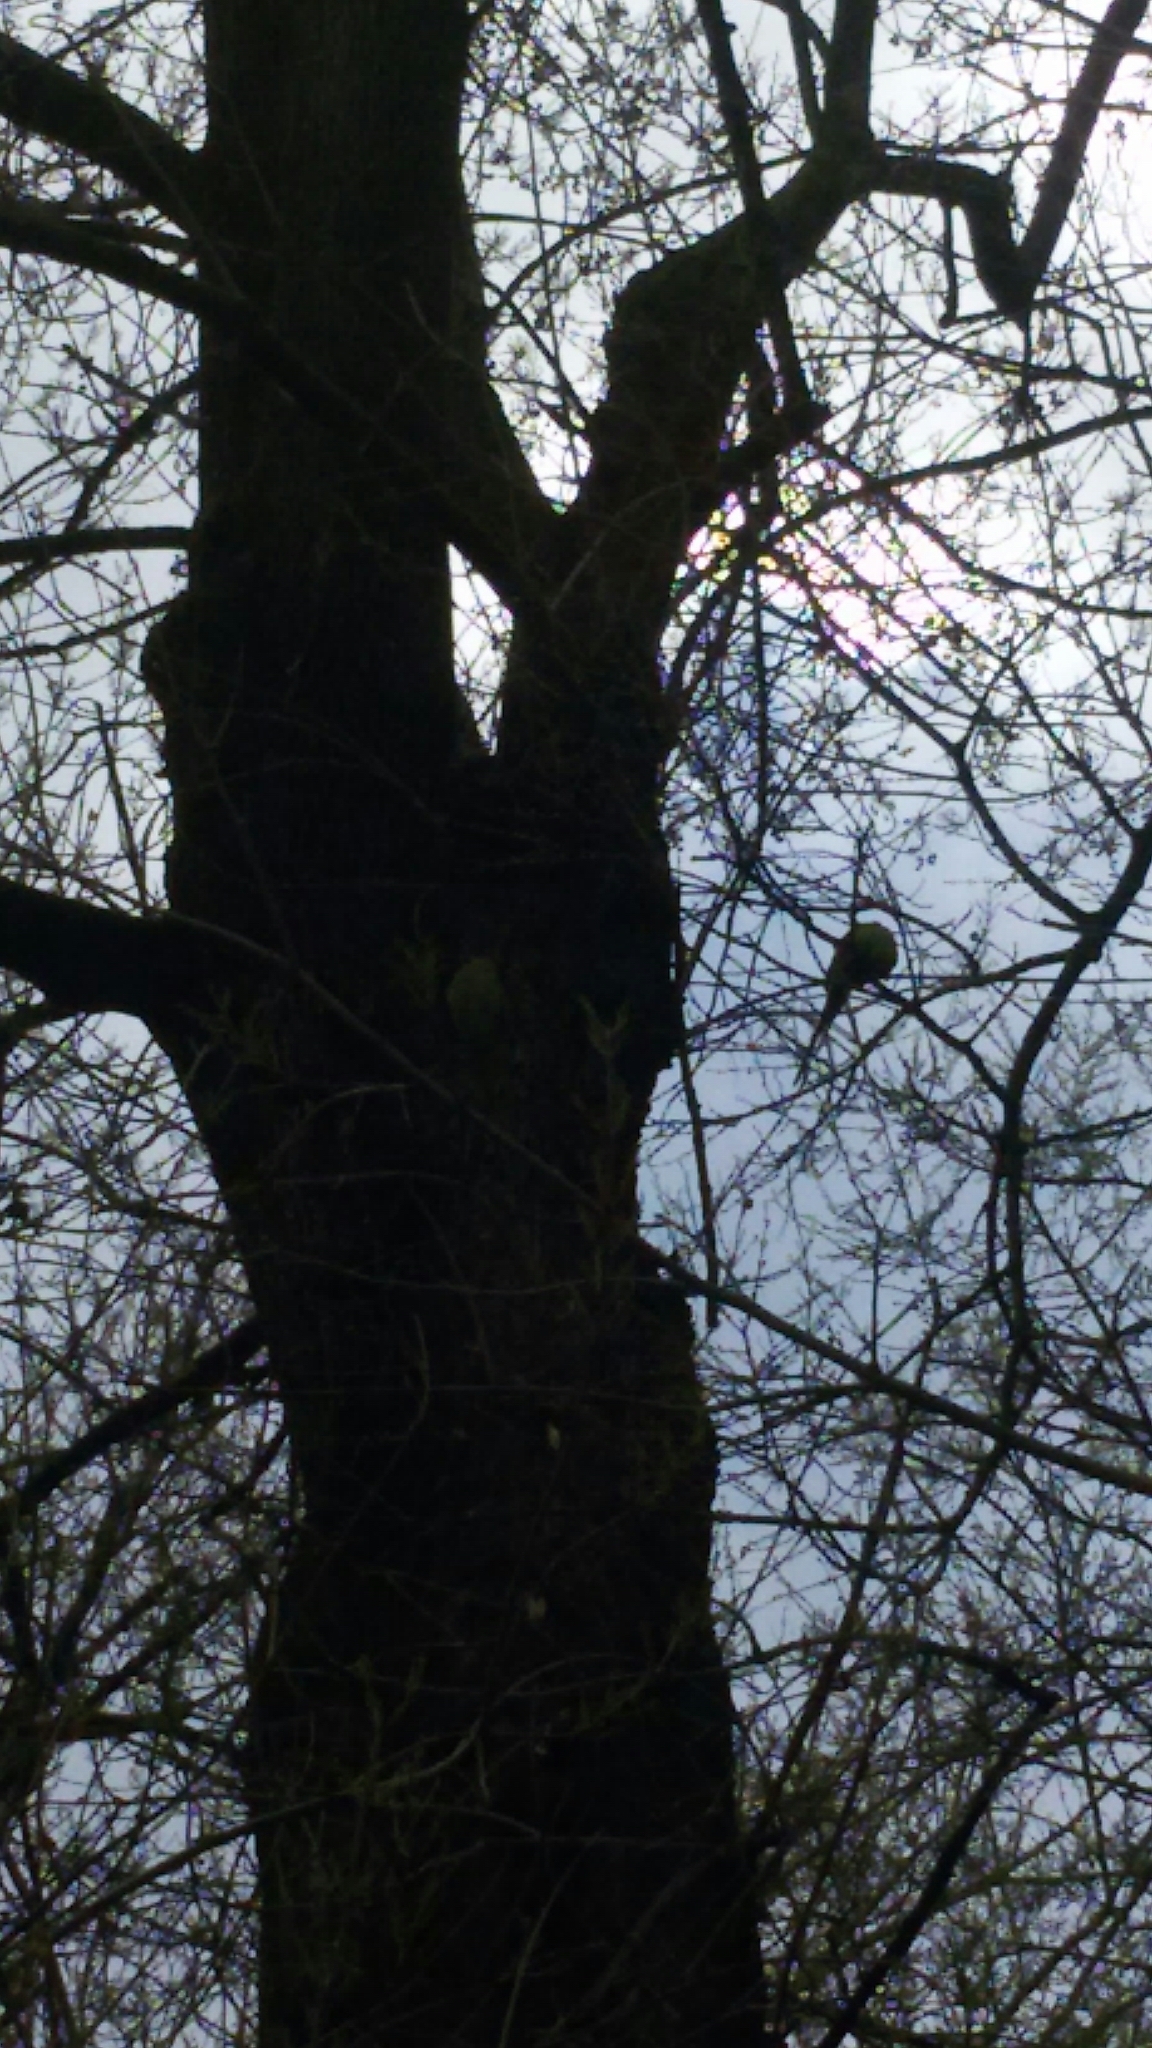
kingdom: Animalia
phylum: Chordata
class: Aves
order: Psittaciformes
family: Psittacidae
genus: Psittacula
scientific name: Psittacula krameri
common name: Rose-ringed parakeet
